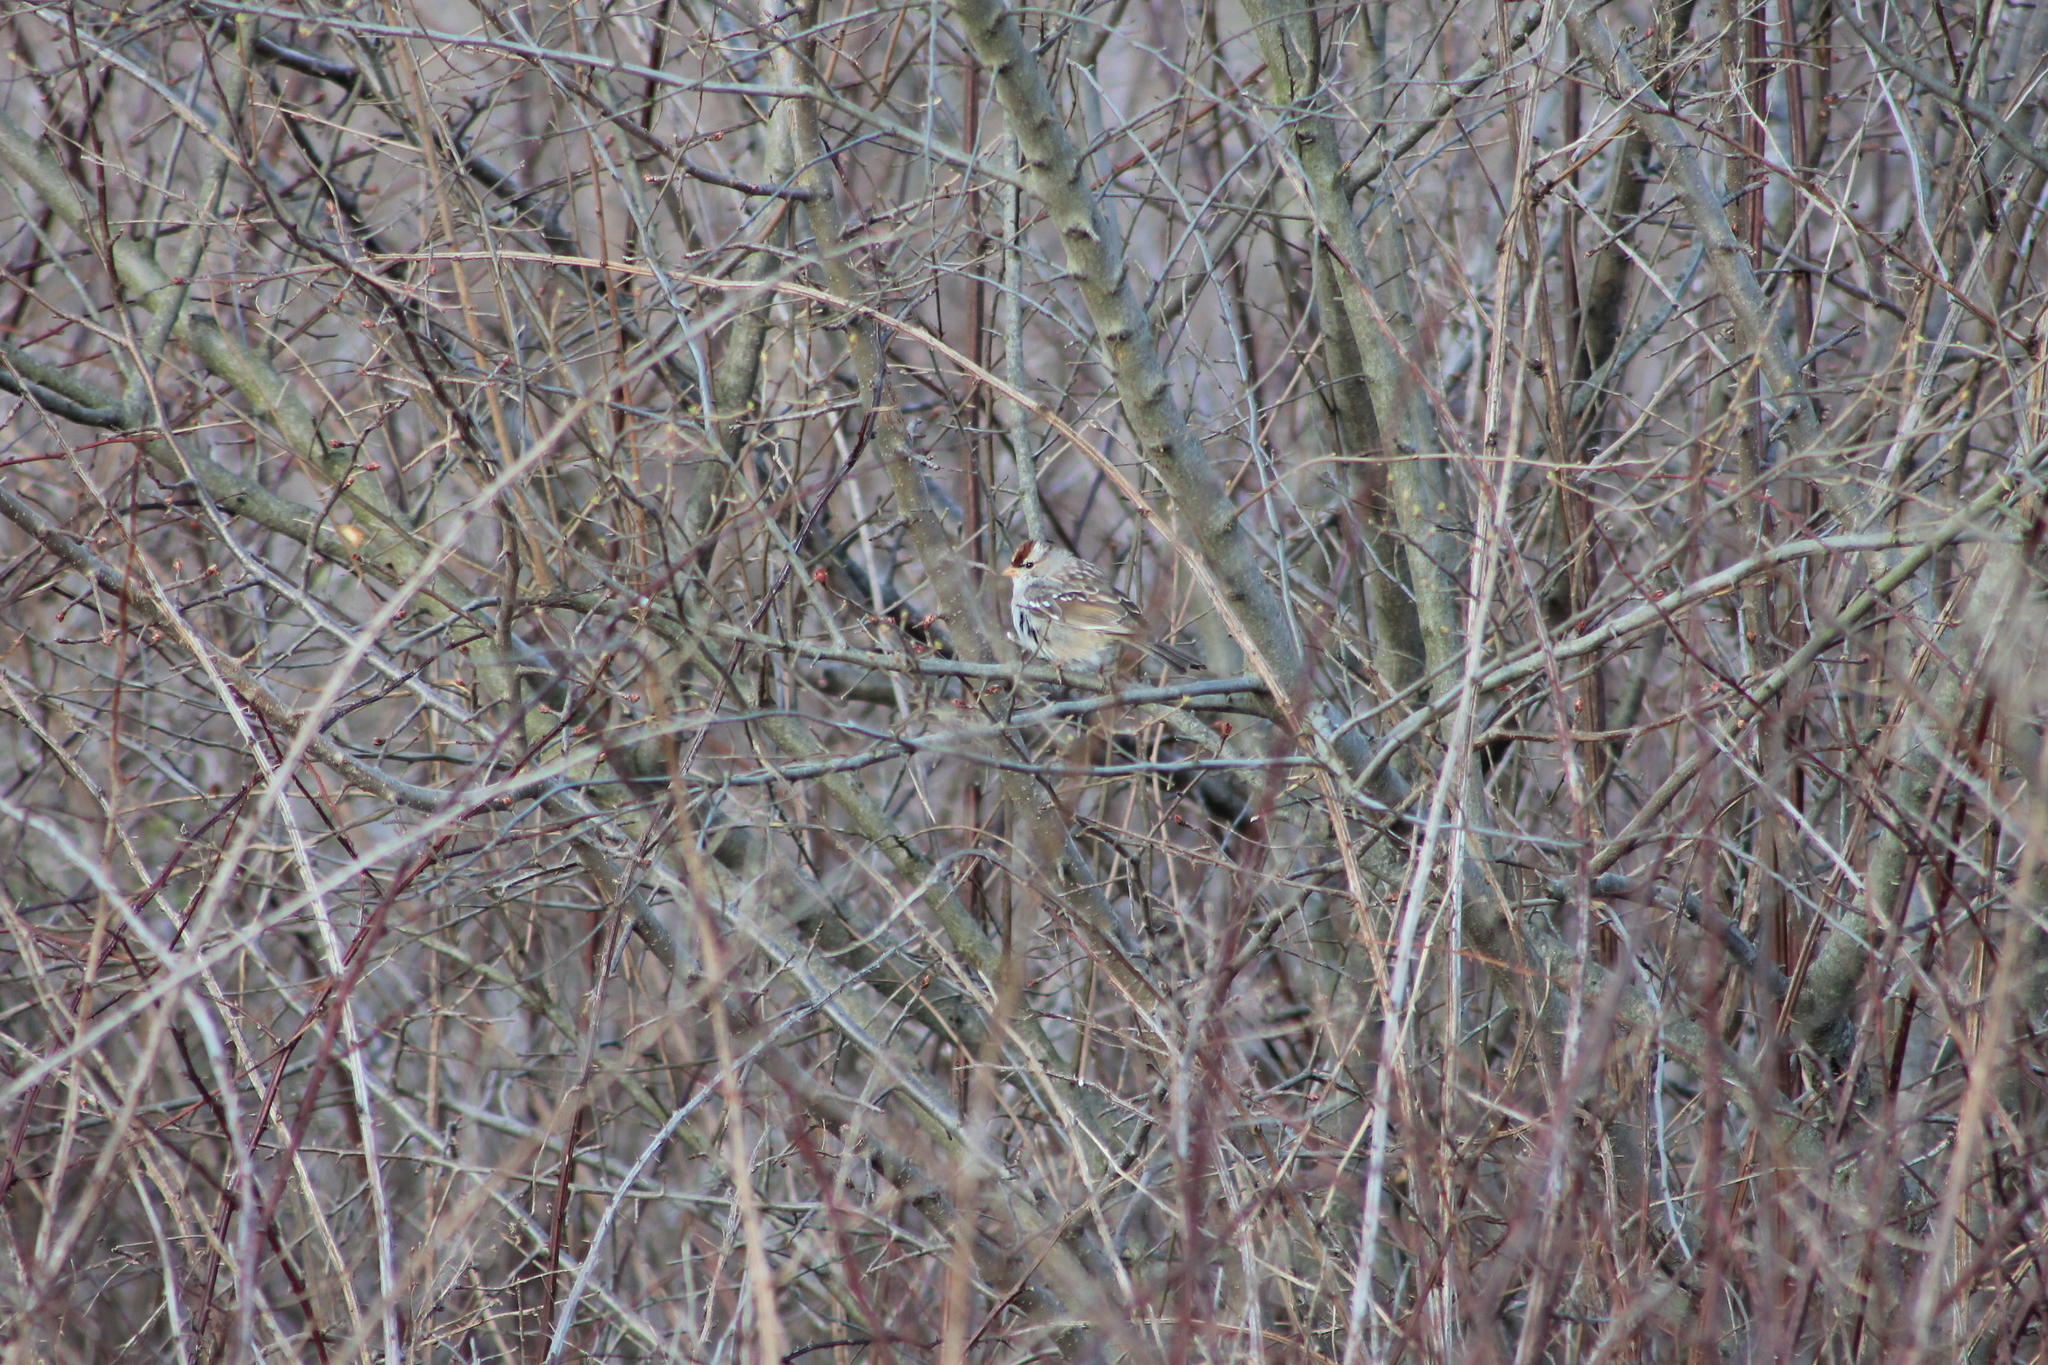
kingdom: Animalia
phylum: Chordata
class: Aves
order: Passeriformes
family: Passerellidae
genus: Zonotrichia
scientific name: Zonotrichia leucophrys
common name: White-crowned sparrow
